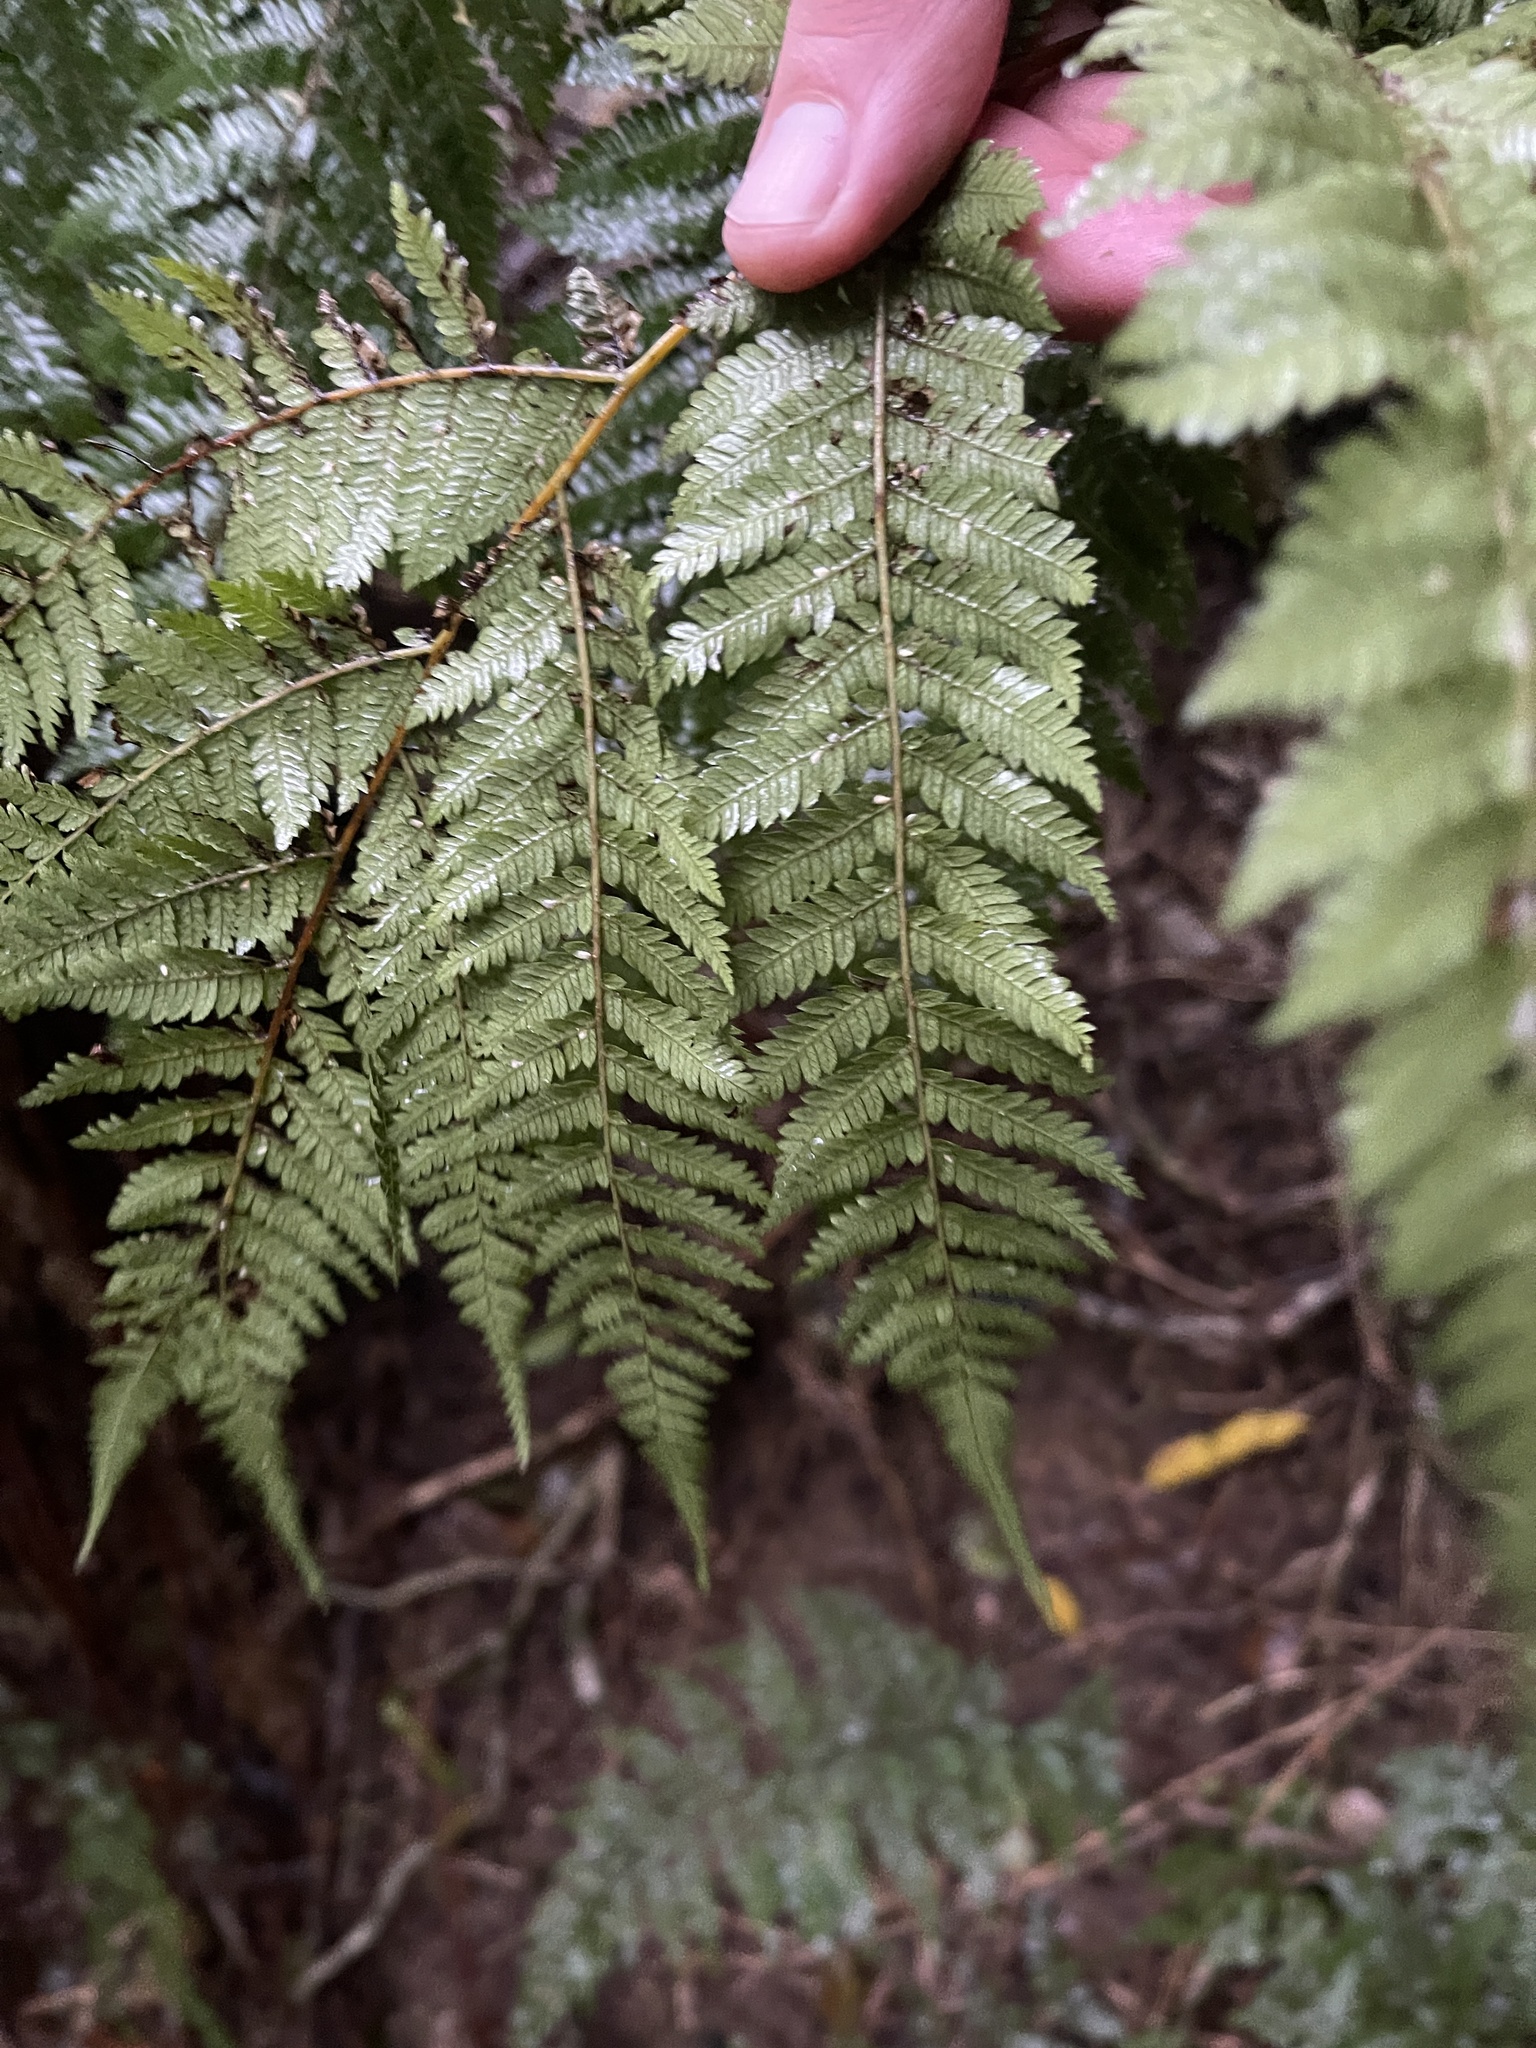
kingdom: Plantae
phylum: Tracheophyta
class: Polypodiopsida
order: Cyatheales
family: Cyatheaceae
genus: Alsophila
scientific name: Alsophila smithii
